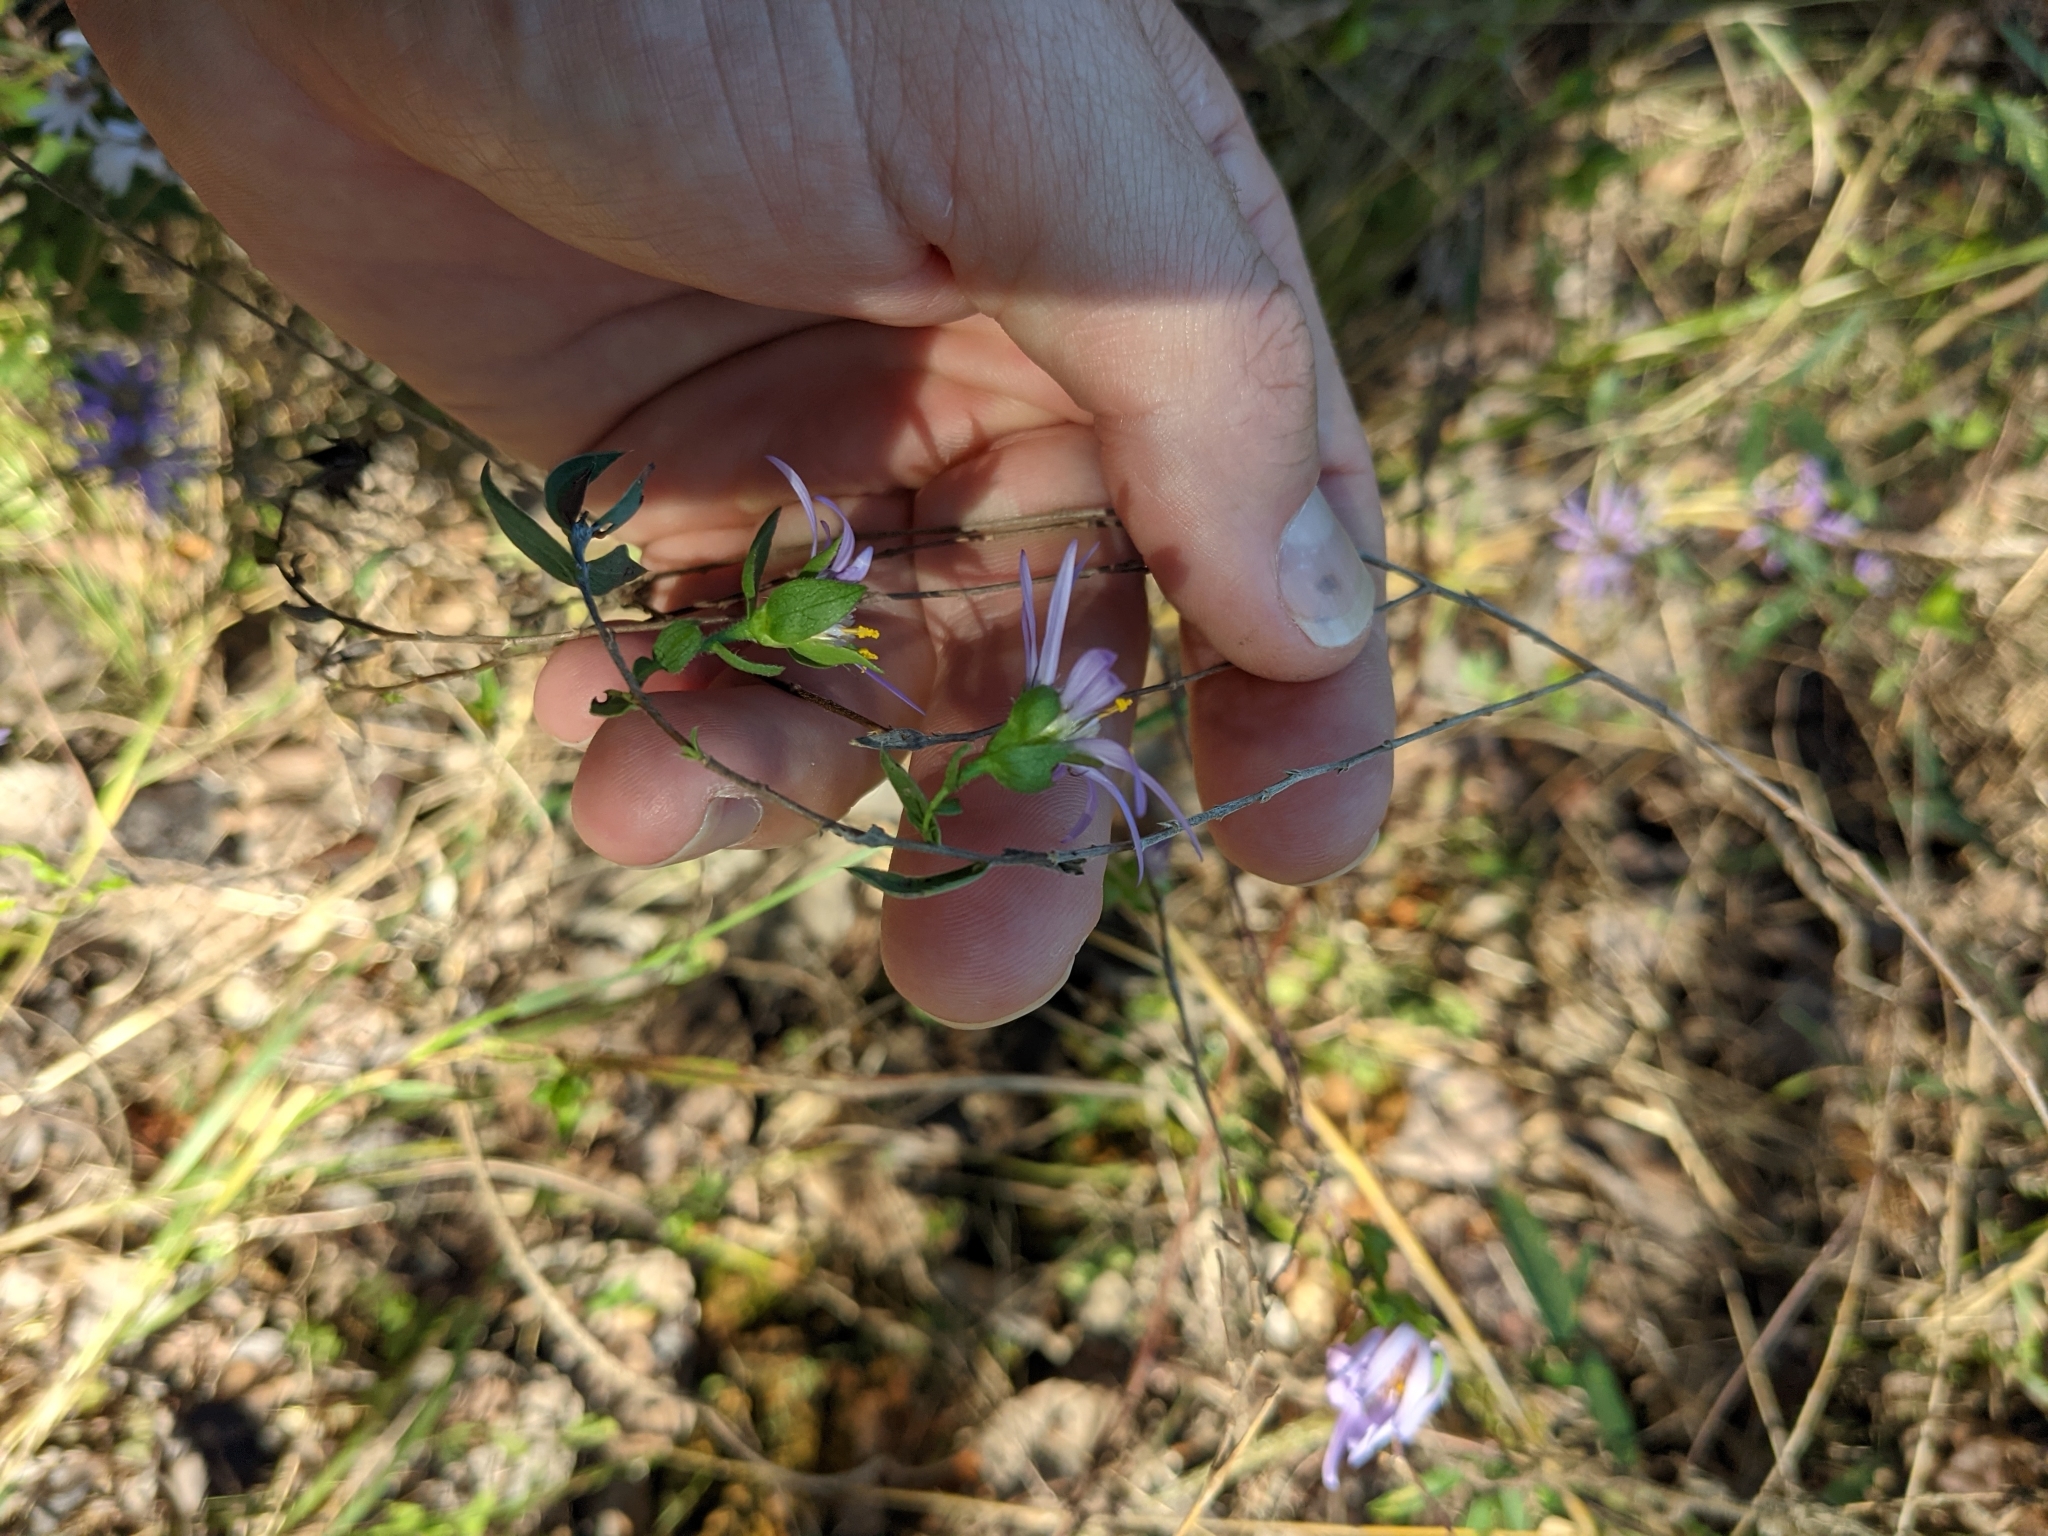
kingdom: Plantae
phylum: Tracheophyta
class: Magnoliopsida
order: Asterales
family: Asteraceae
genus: Symphyotrichum
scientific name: Symphyotrichum pratense
